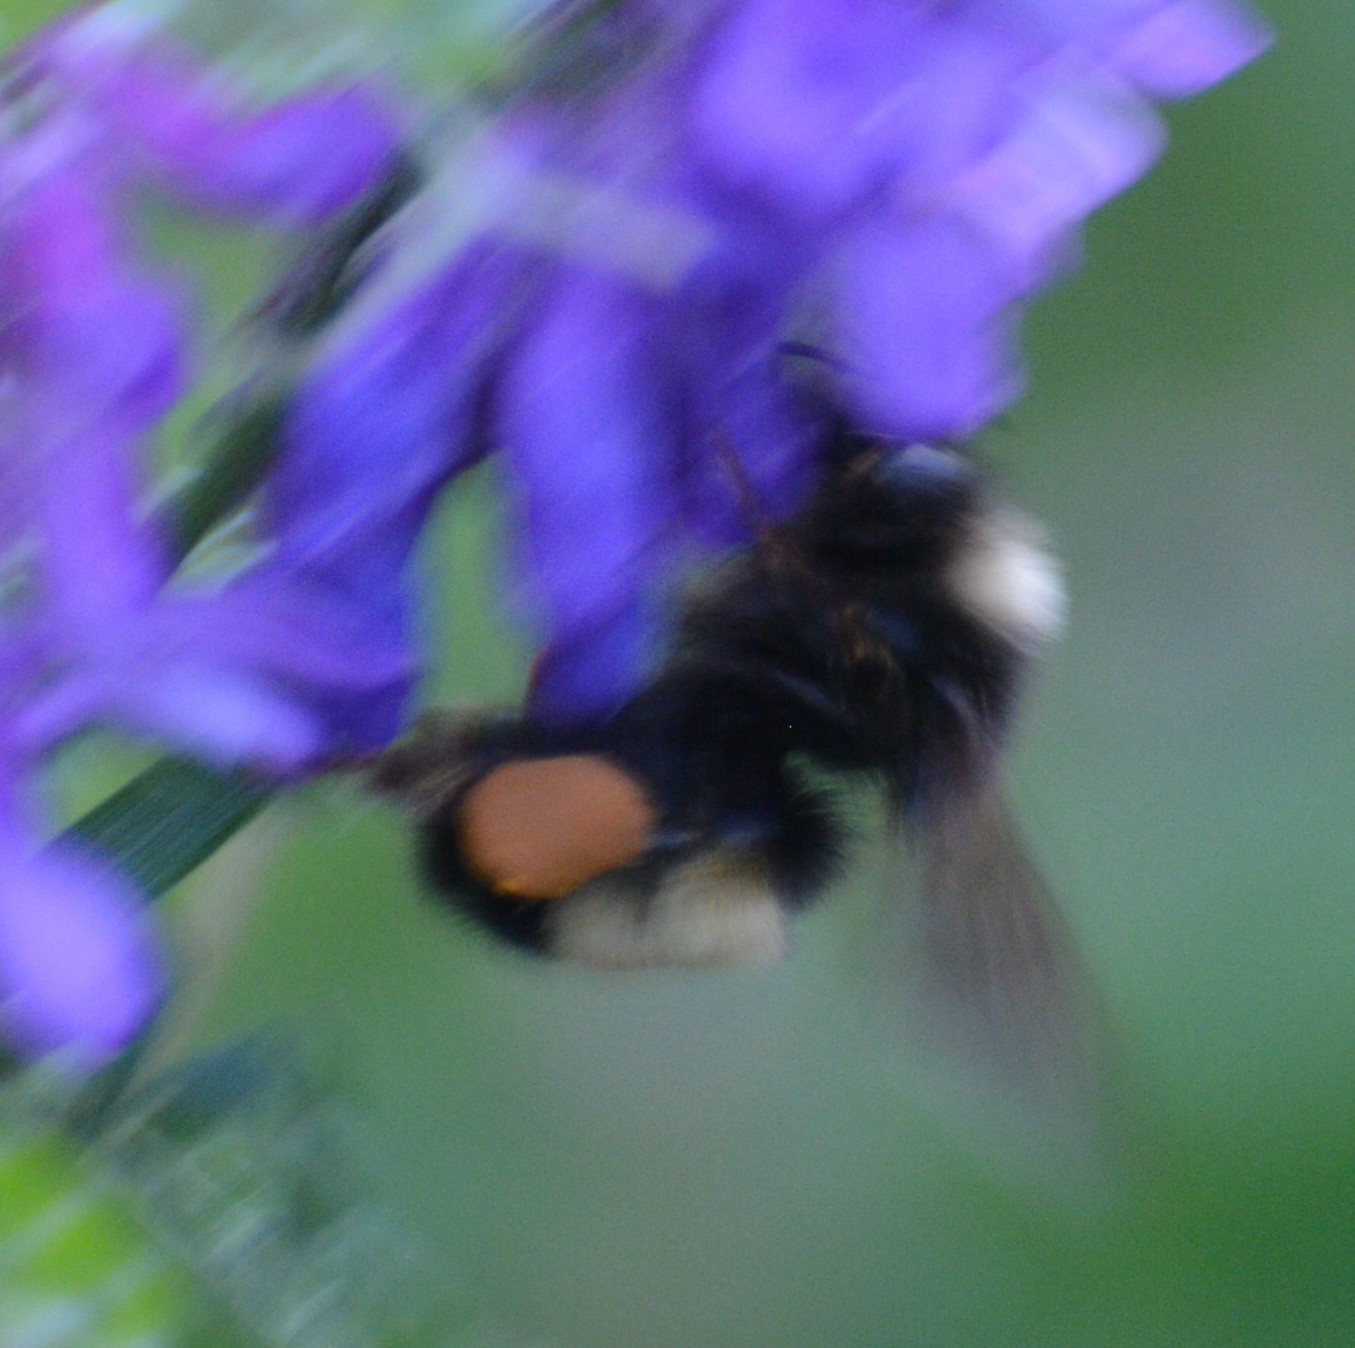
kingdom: Animalia
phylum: Arthropoda
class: Insecta
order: Hymenoptera
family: Apidae
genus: Bombus
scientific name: Bombus terricola
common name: Yellow-banded bumble bee
